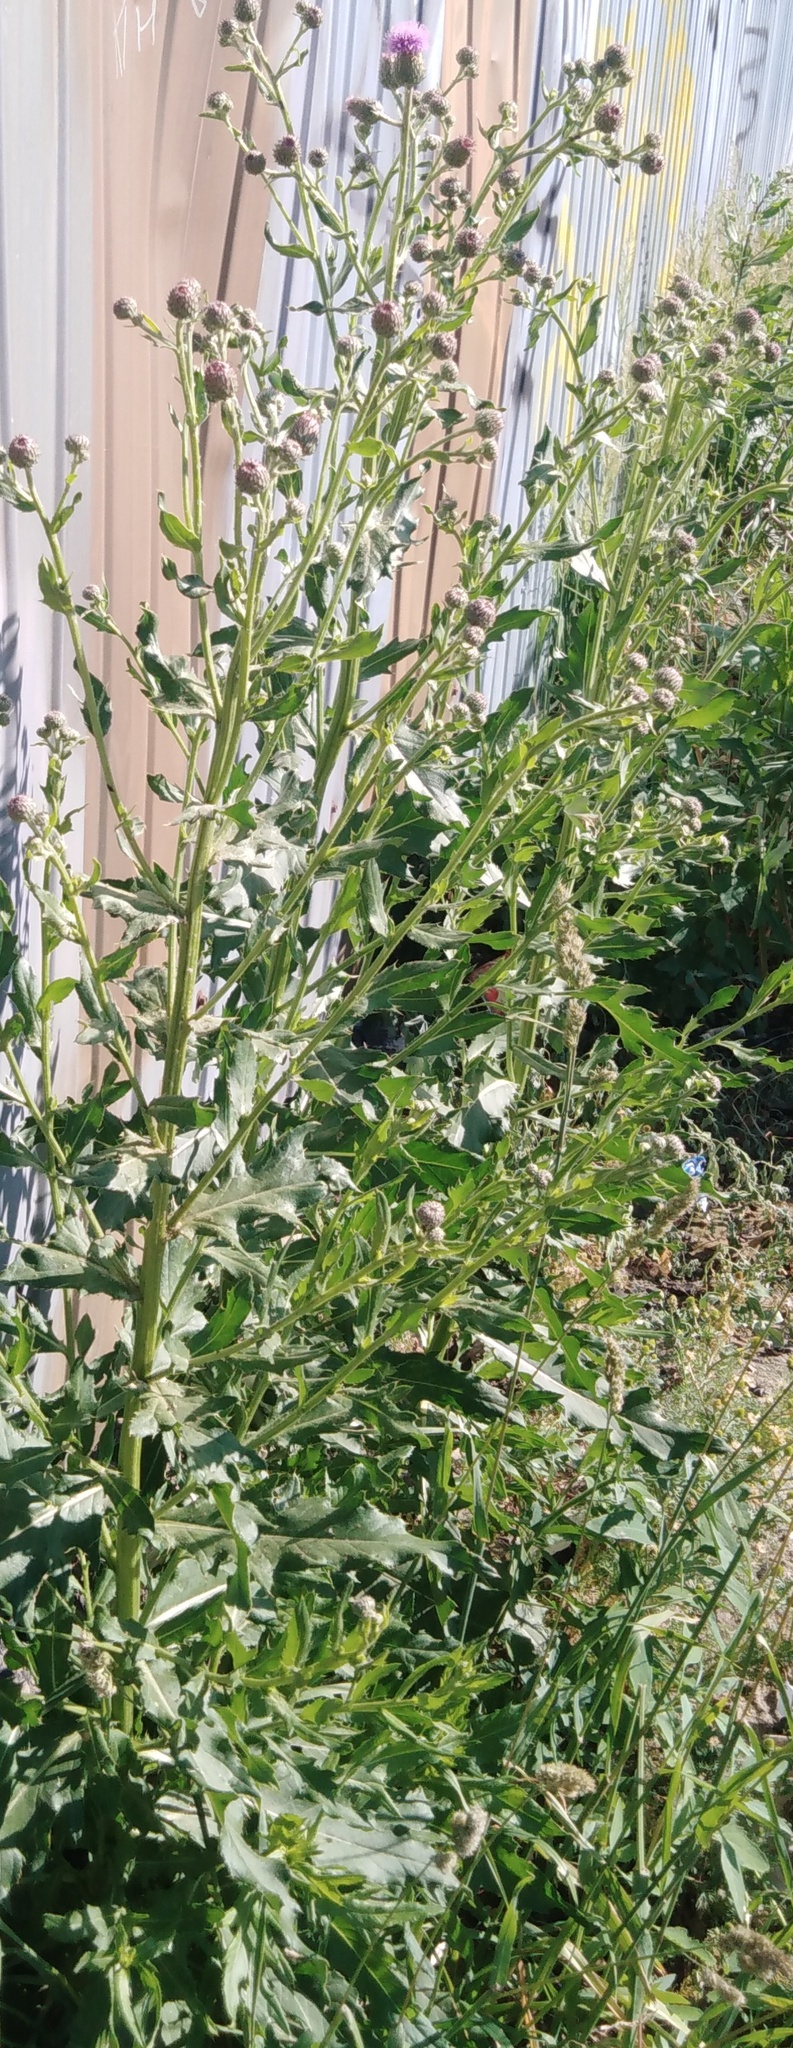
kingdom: Plantae
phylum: Tracheophyta
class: Magnoliopsida
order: Asterales
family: Asteraceae
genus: Cirsium
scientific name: Cirsium arvense
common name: Creeping thistle
